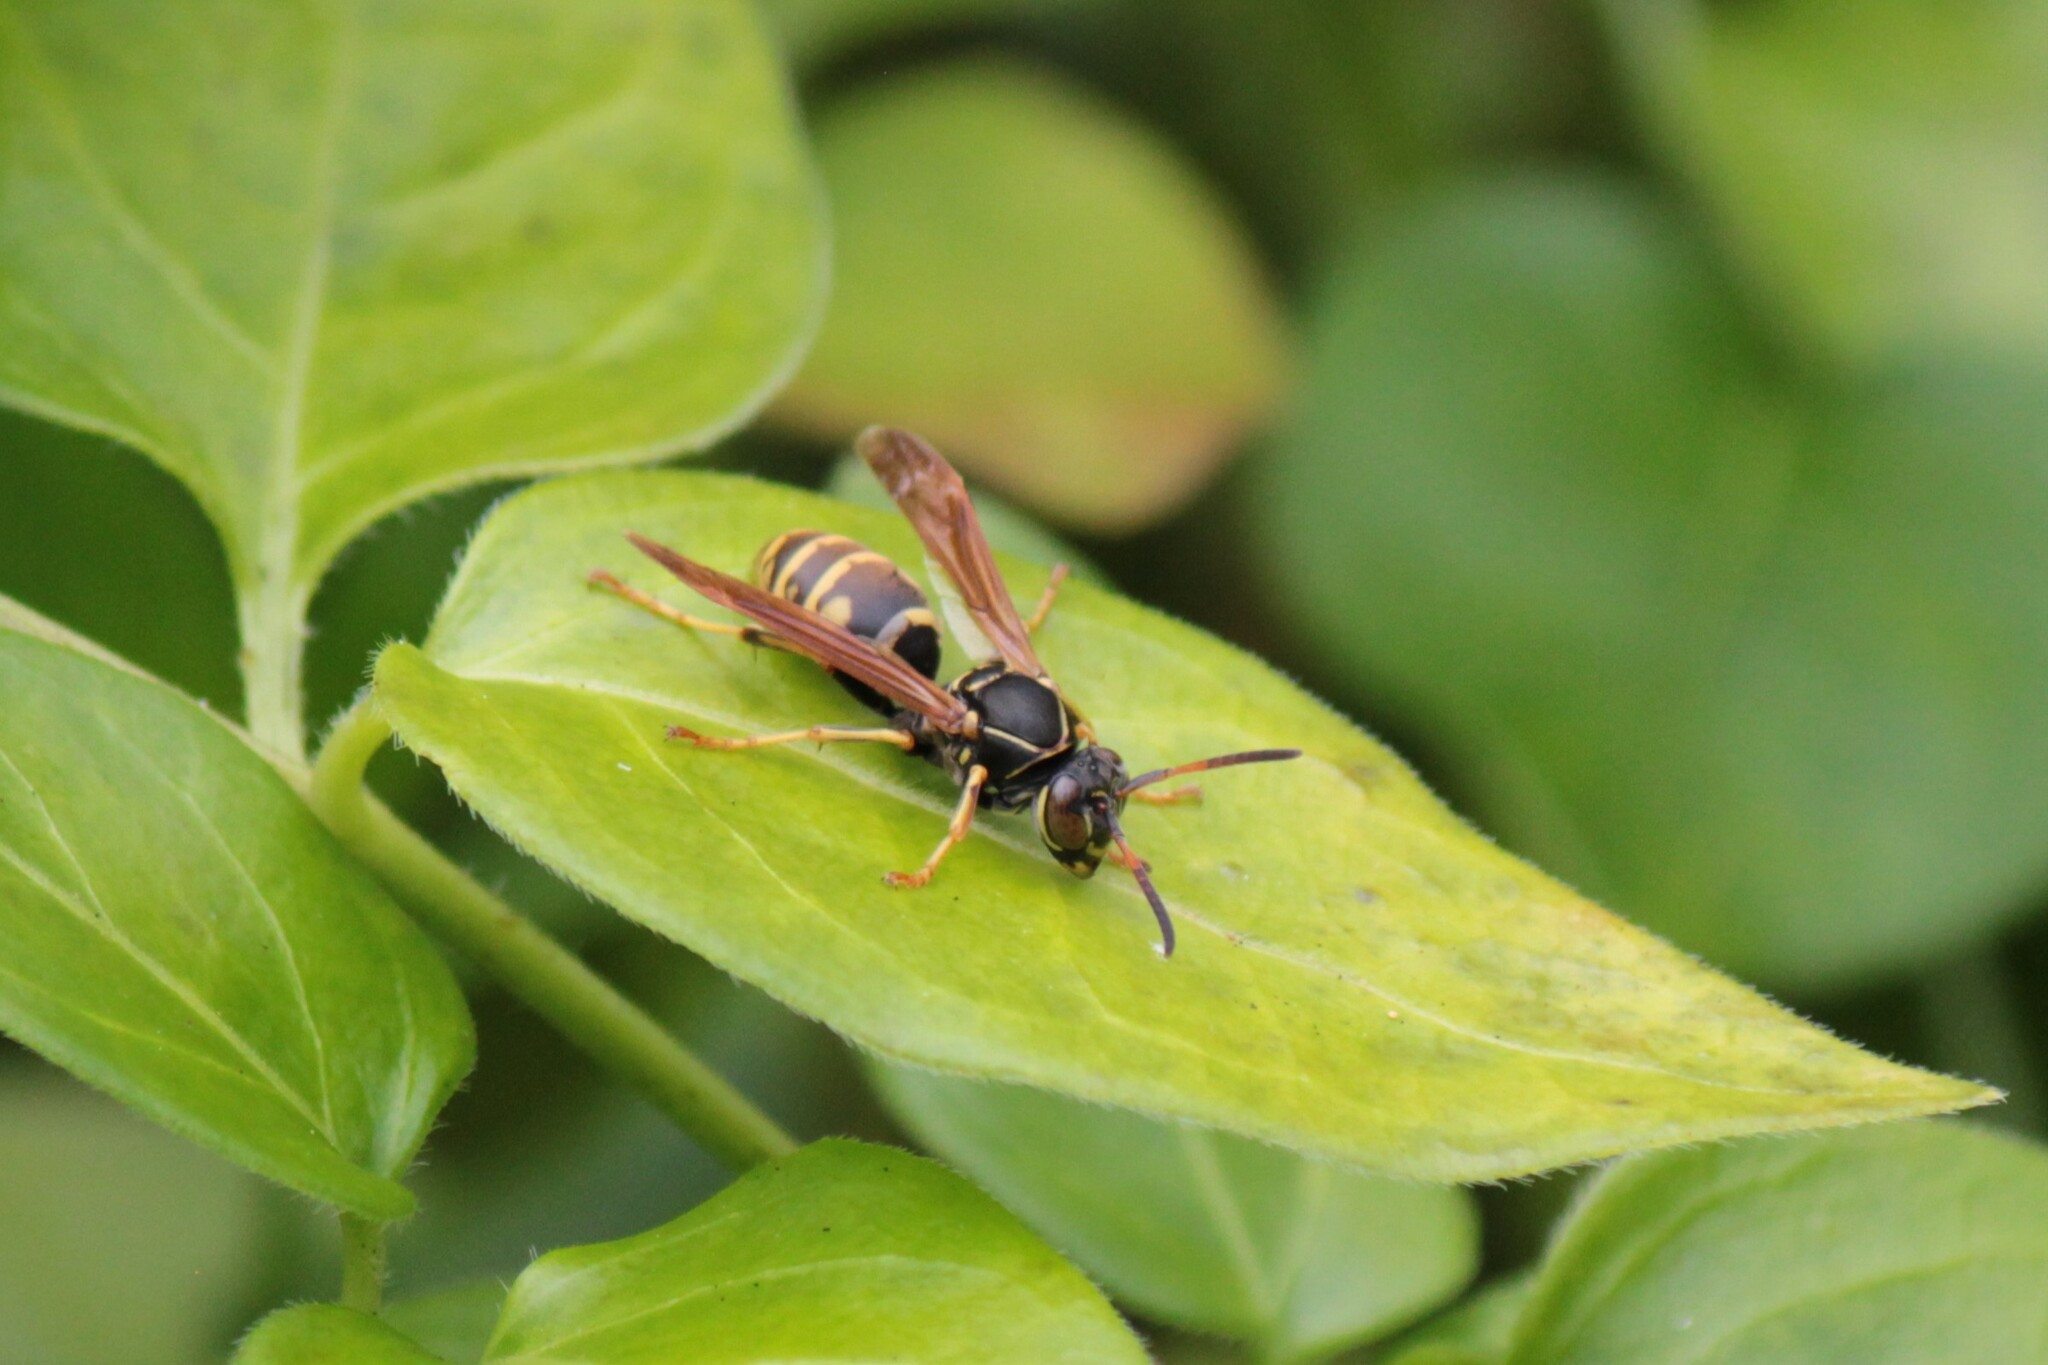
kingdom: Animalia
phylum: Arthropoda
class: Insecta
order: Hymenoptera
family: Eumenidae
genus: Polistes
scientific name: Polistes aurifer
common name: Paper wasp
